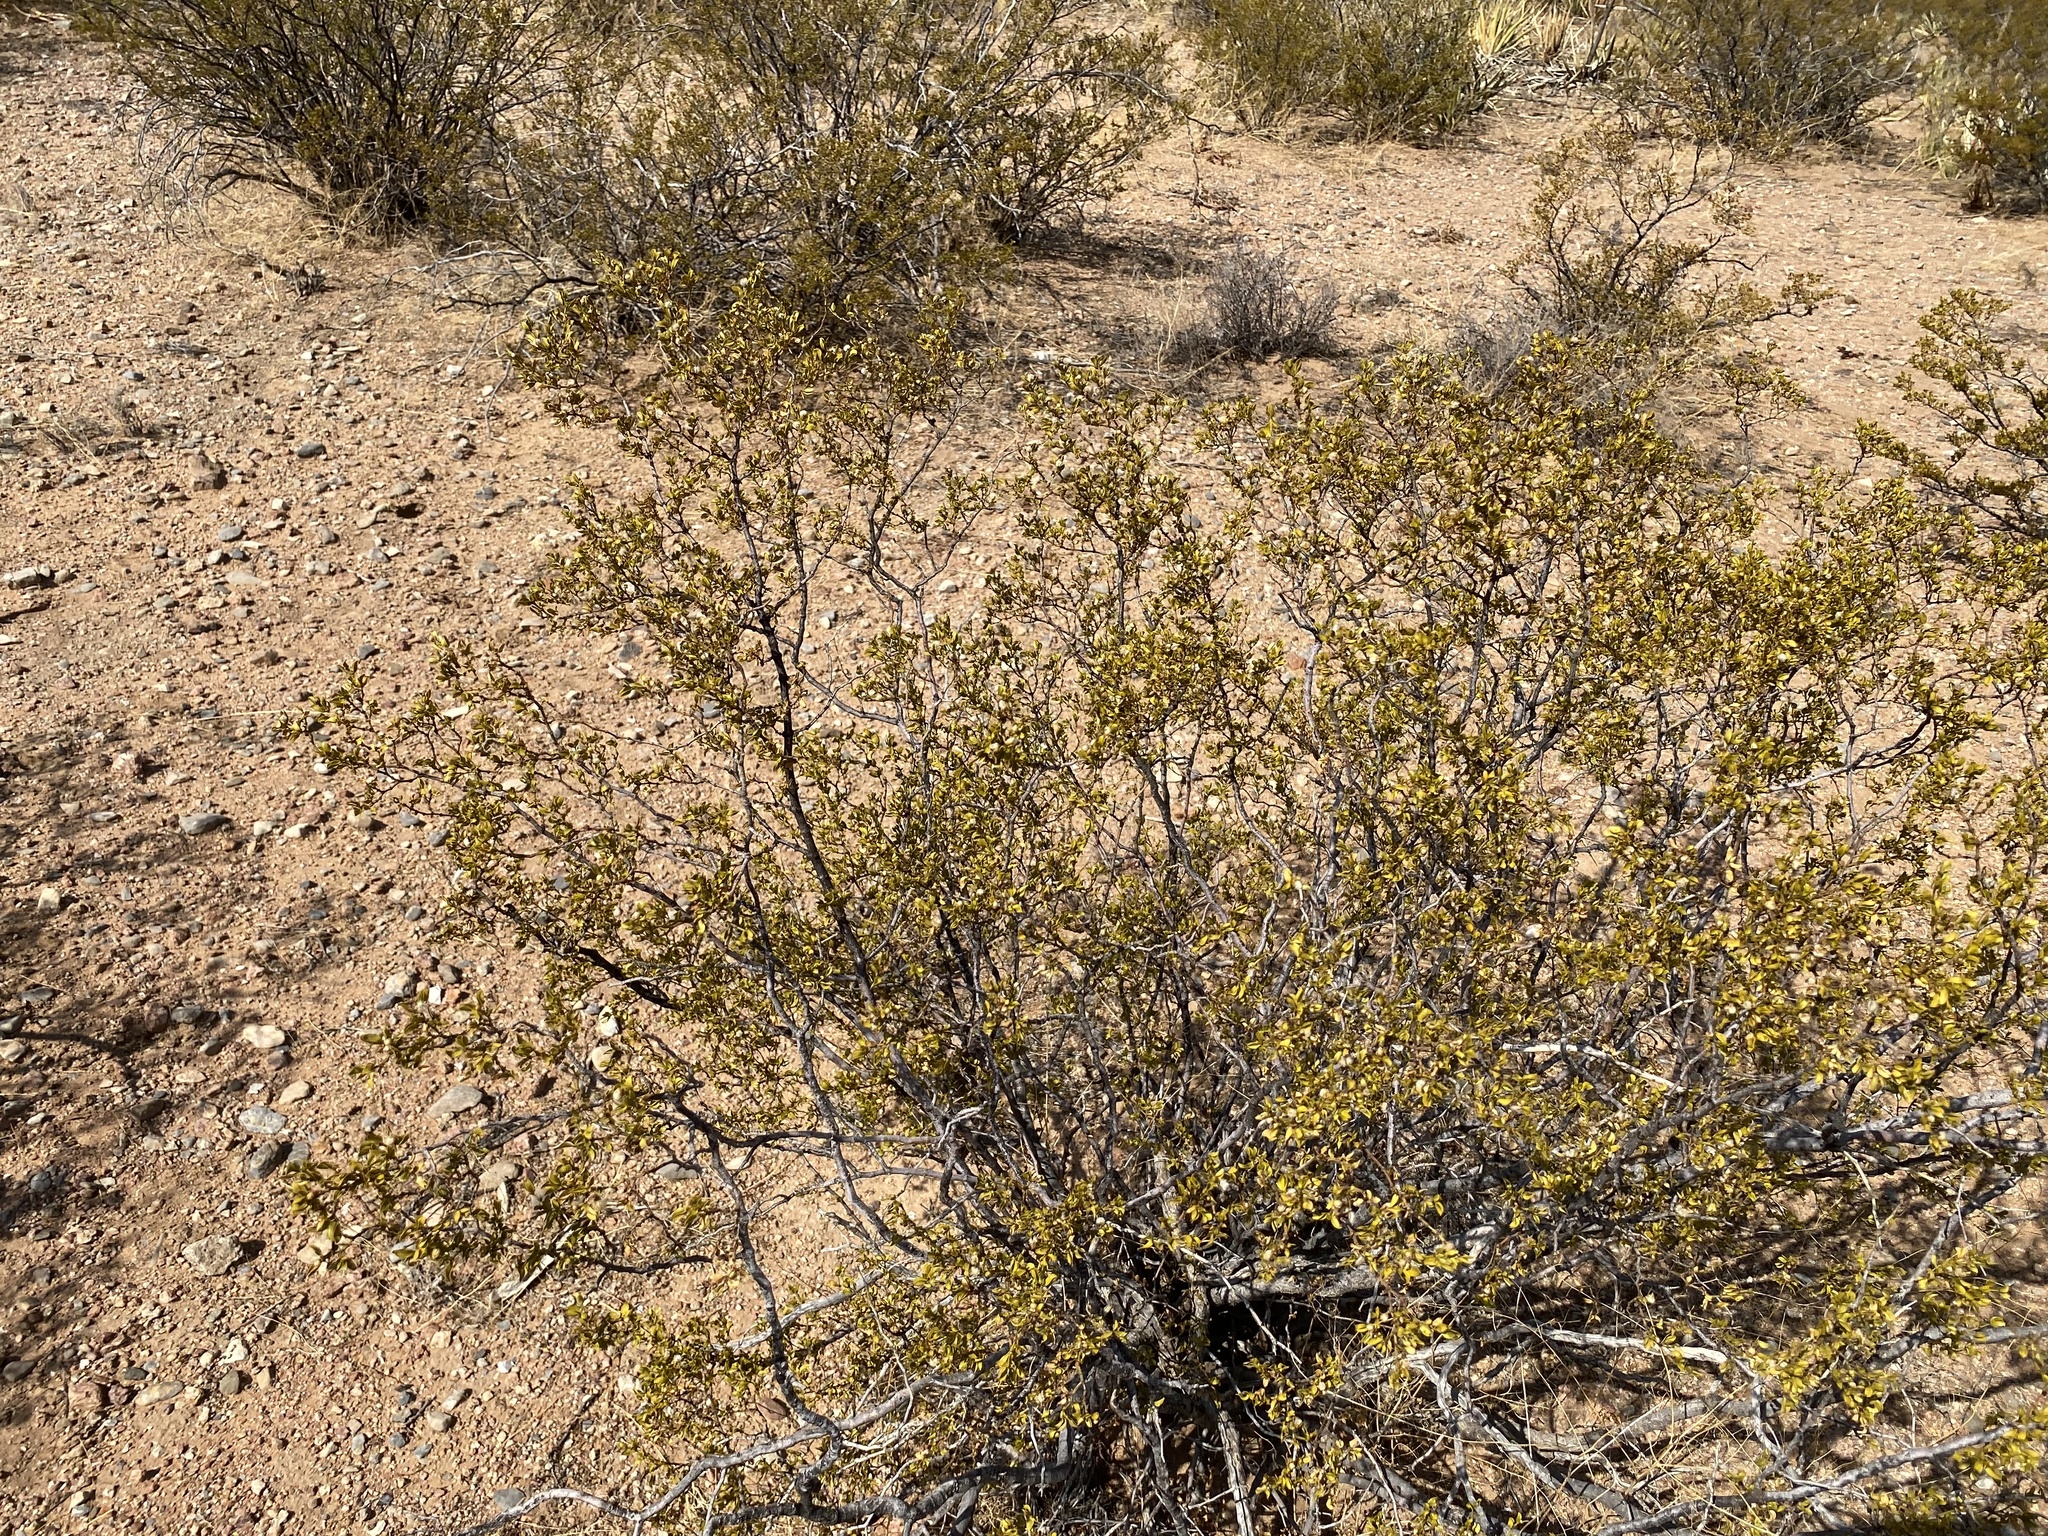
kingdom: Plantae
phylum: Tracheophyta
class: Magnoliopsida
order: Zygophyllales
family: Zygophyllaceae
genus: Larrea
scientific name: Larrea tridentata
